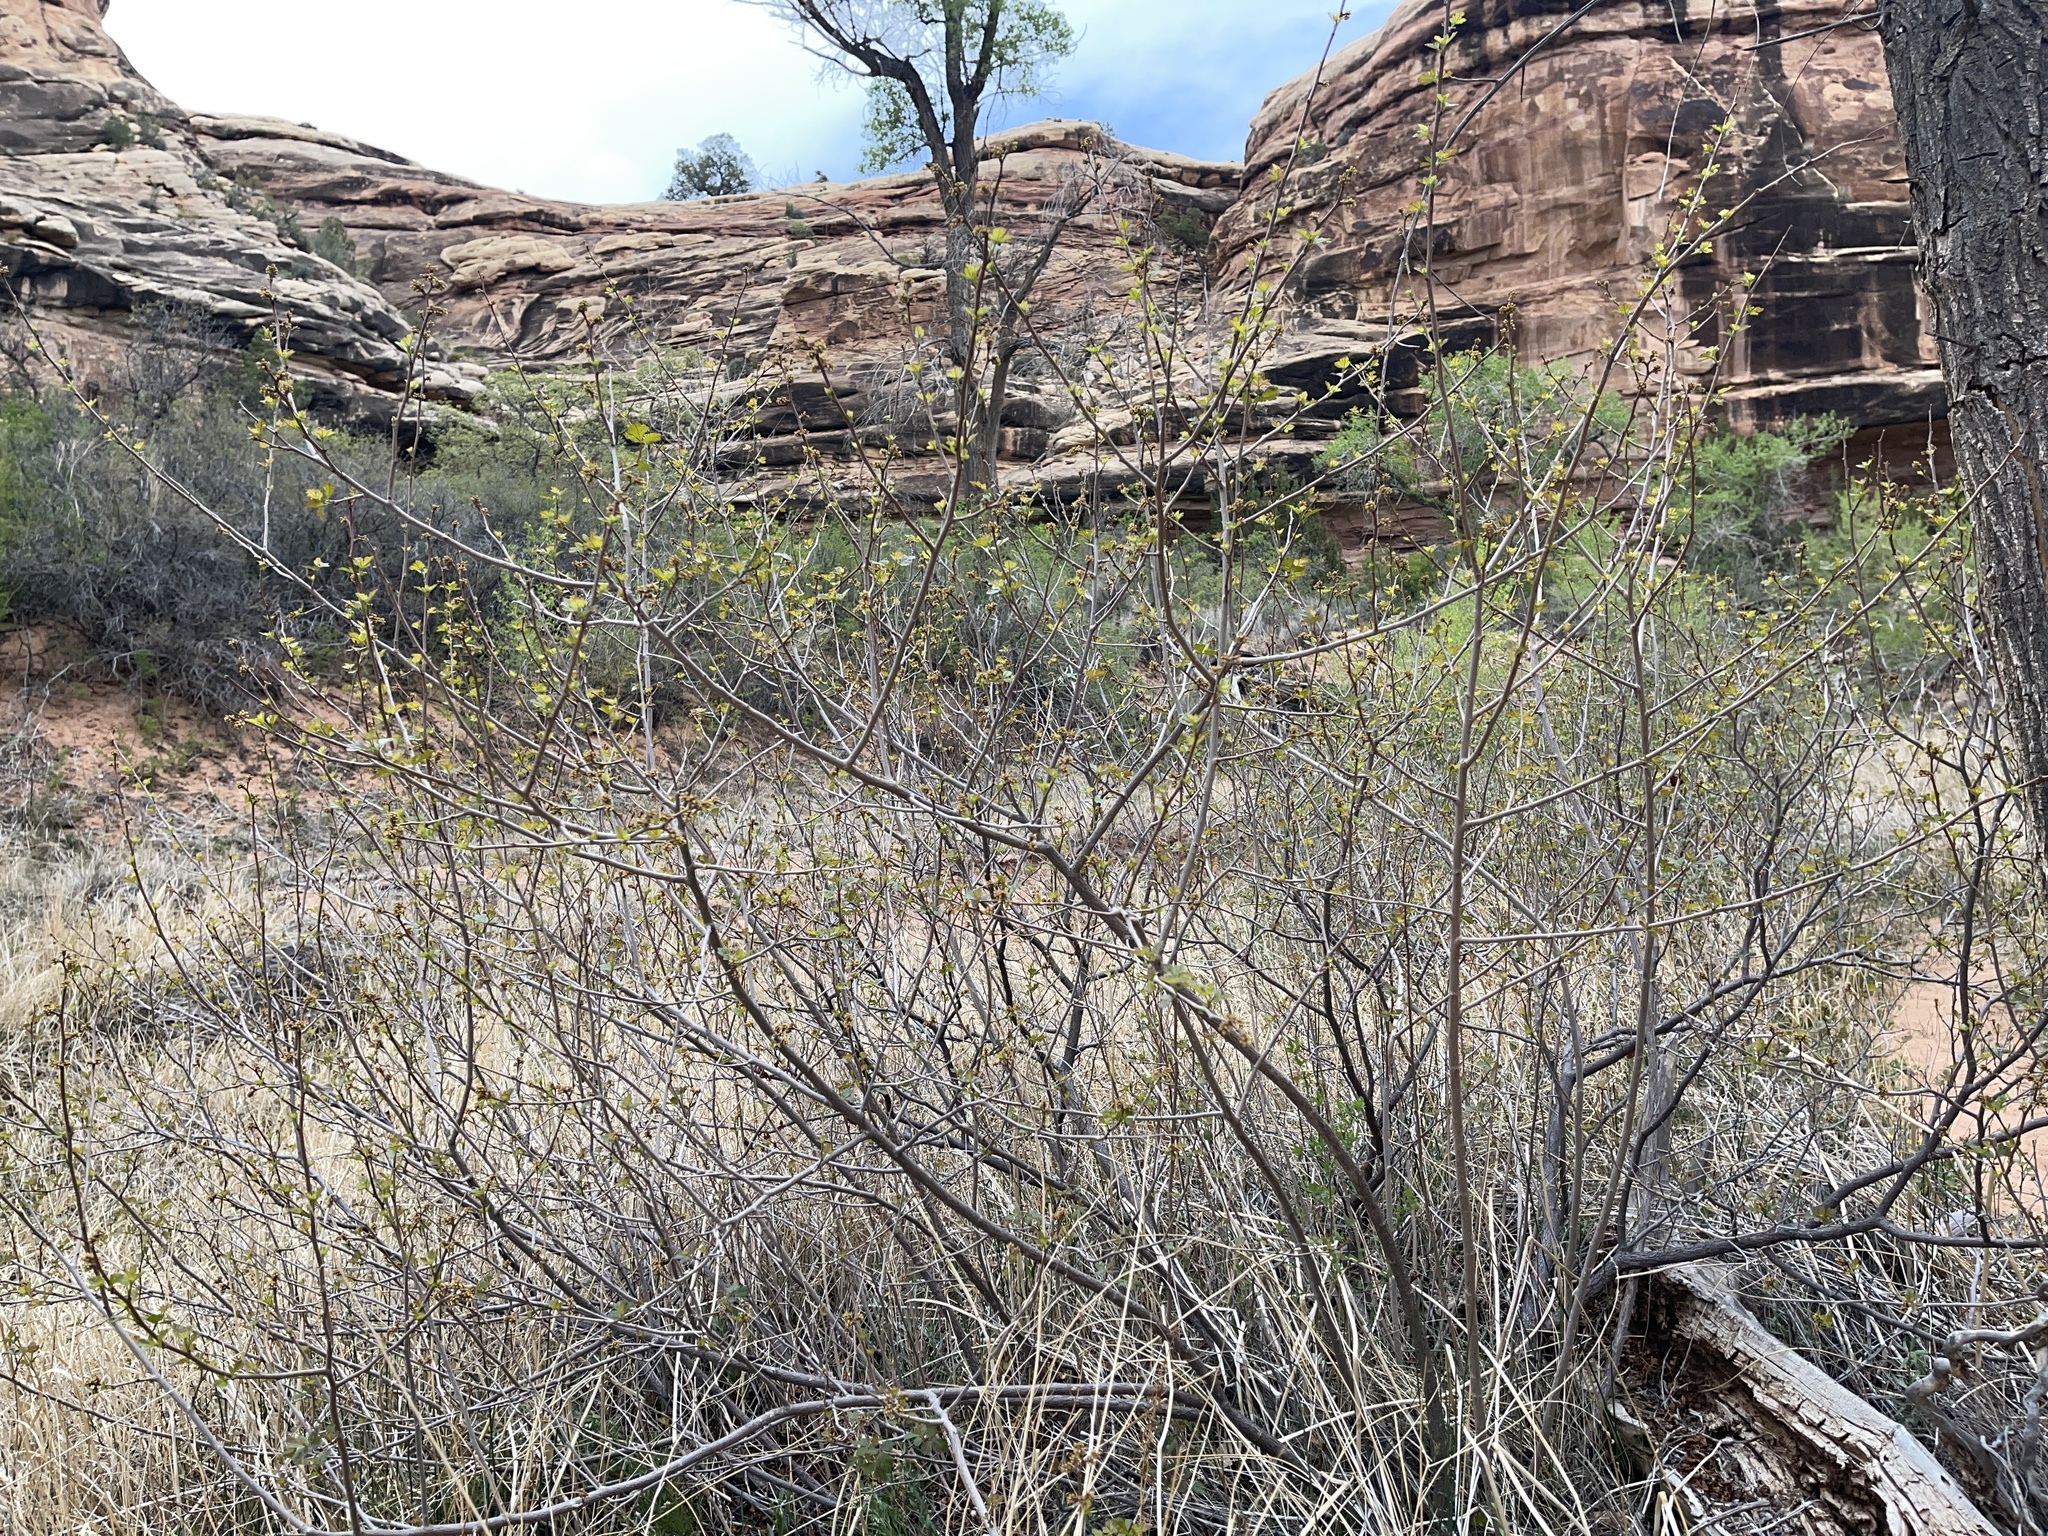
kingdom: Plantae
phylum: Tracheophyta
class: Magnoliopsida
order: Sapindales
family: Anacardiaceae
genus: Rhus
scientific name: Rhus aromatica
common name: Aromatic sumac
